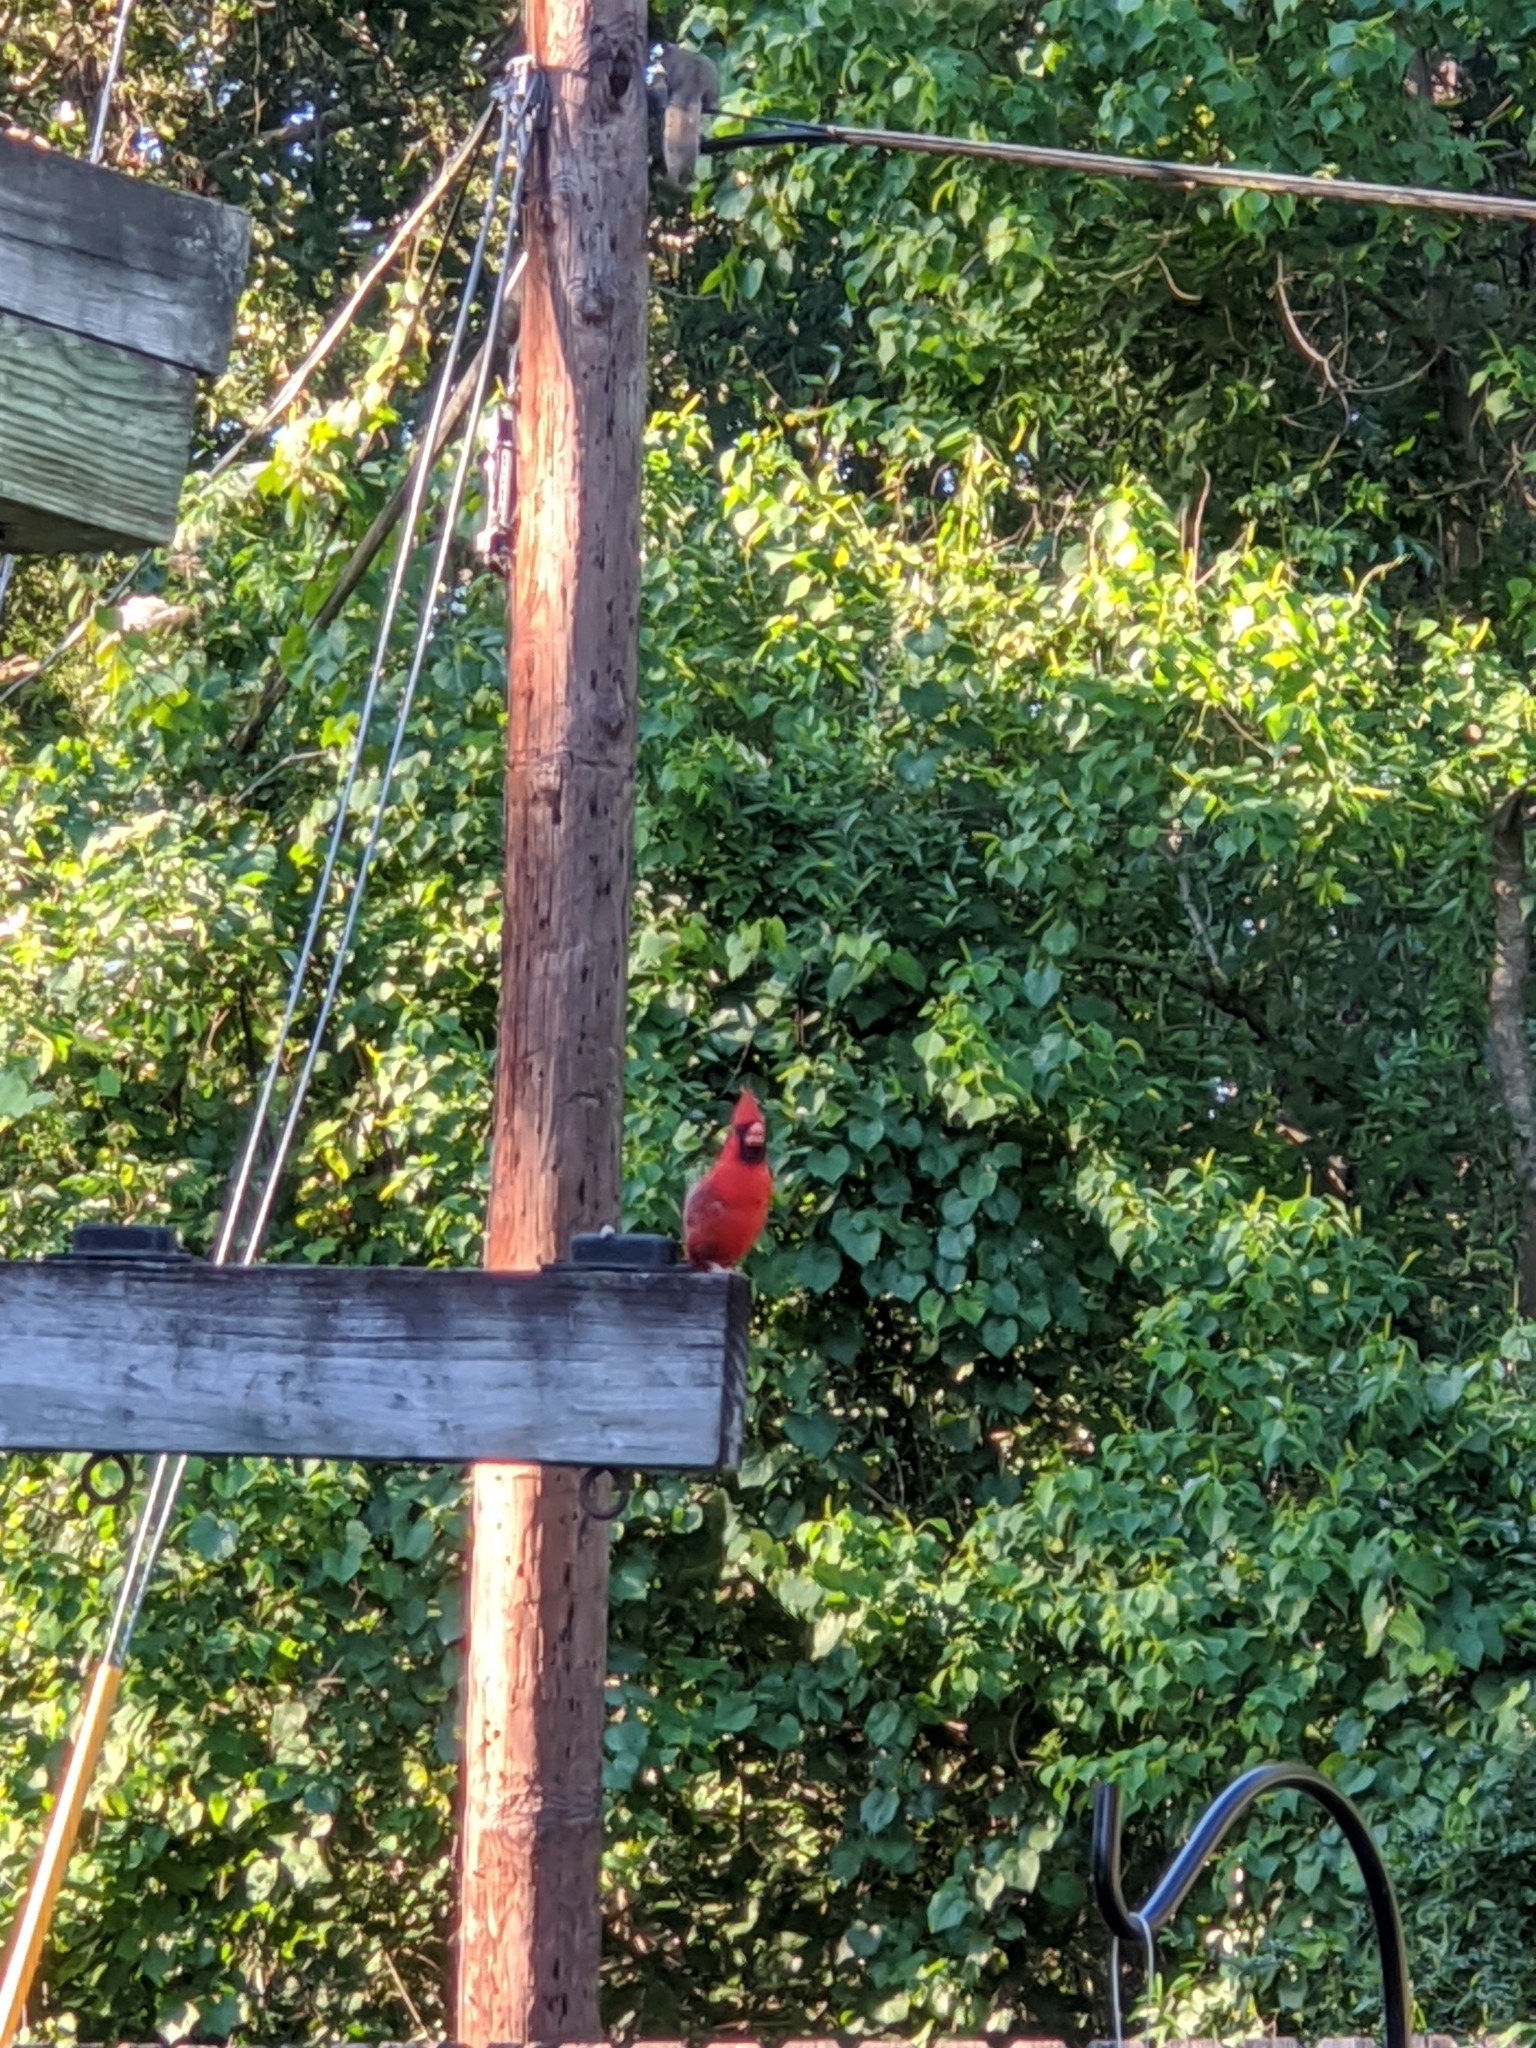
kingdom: Animalia
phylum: Chordata
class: Aves
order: Passeriformes
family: Cardinalidae
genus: Cardinalis
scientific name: Cardinalis cardinalis
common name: Northern cardinal
